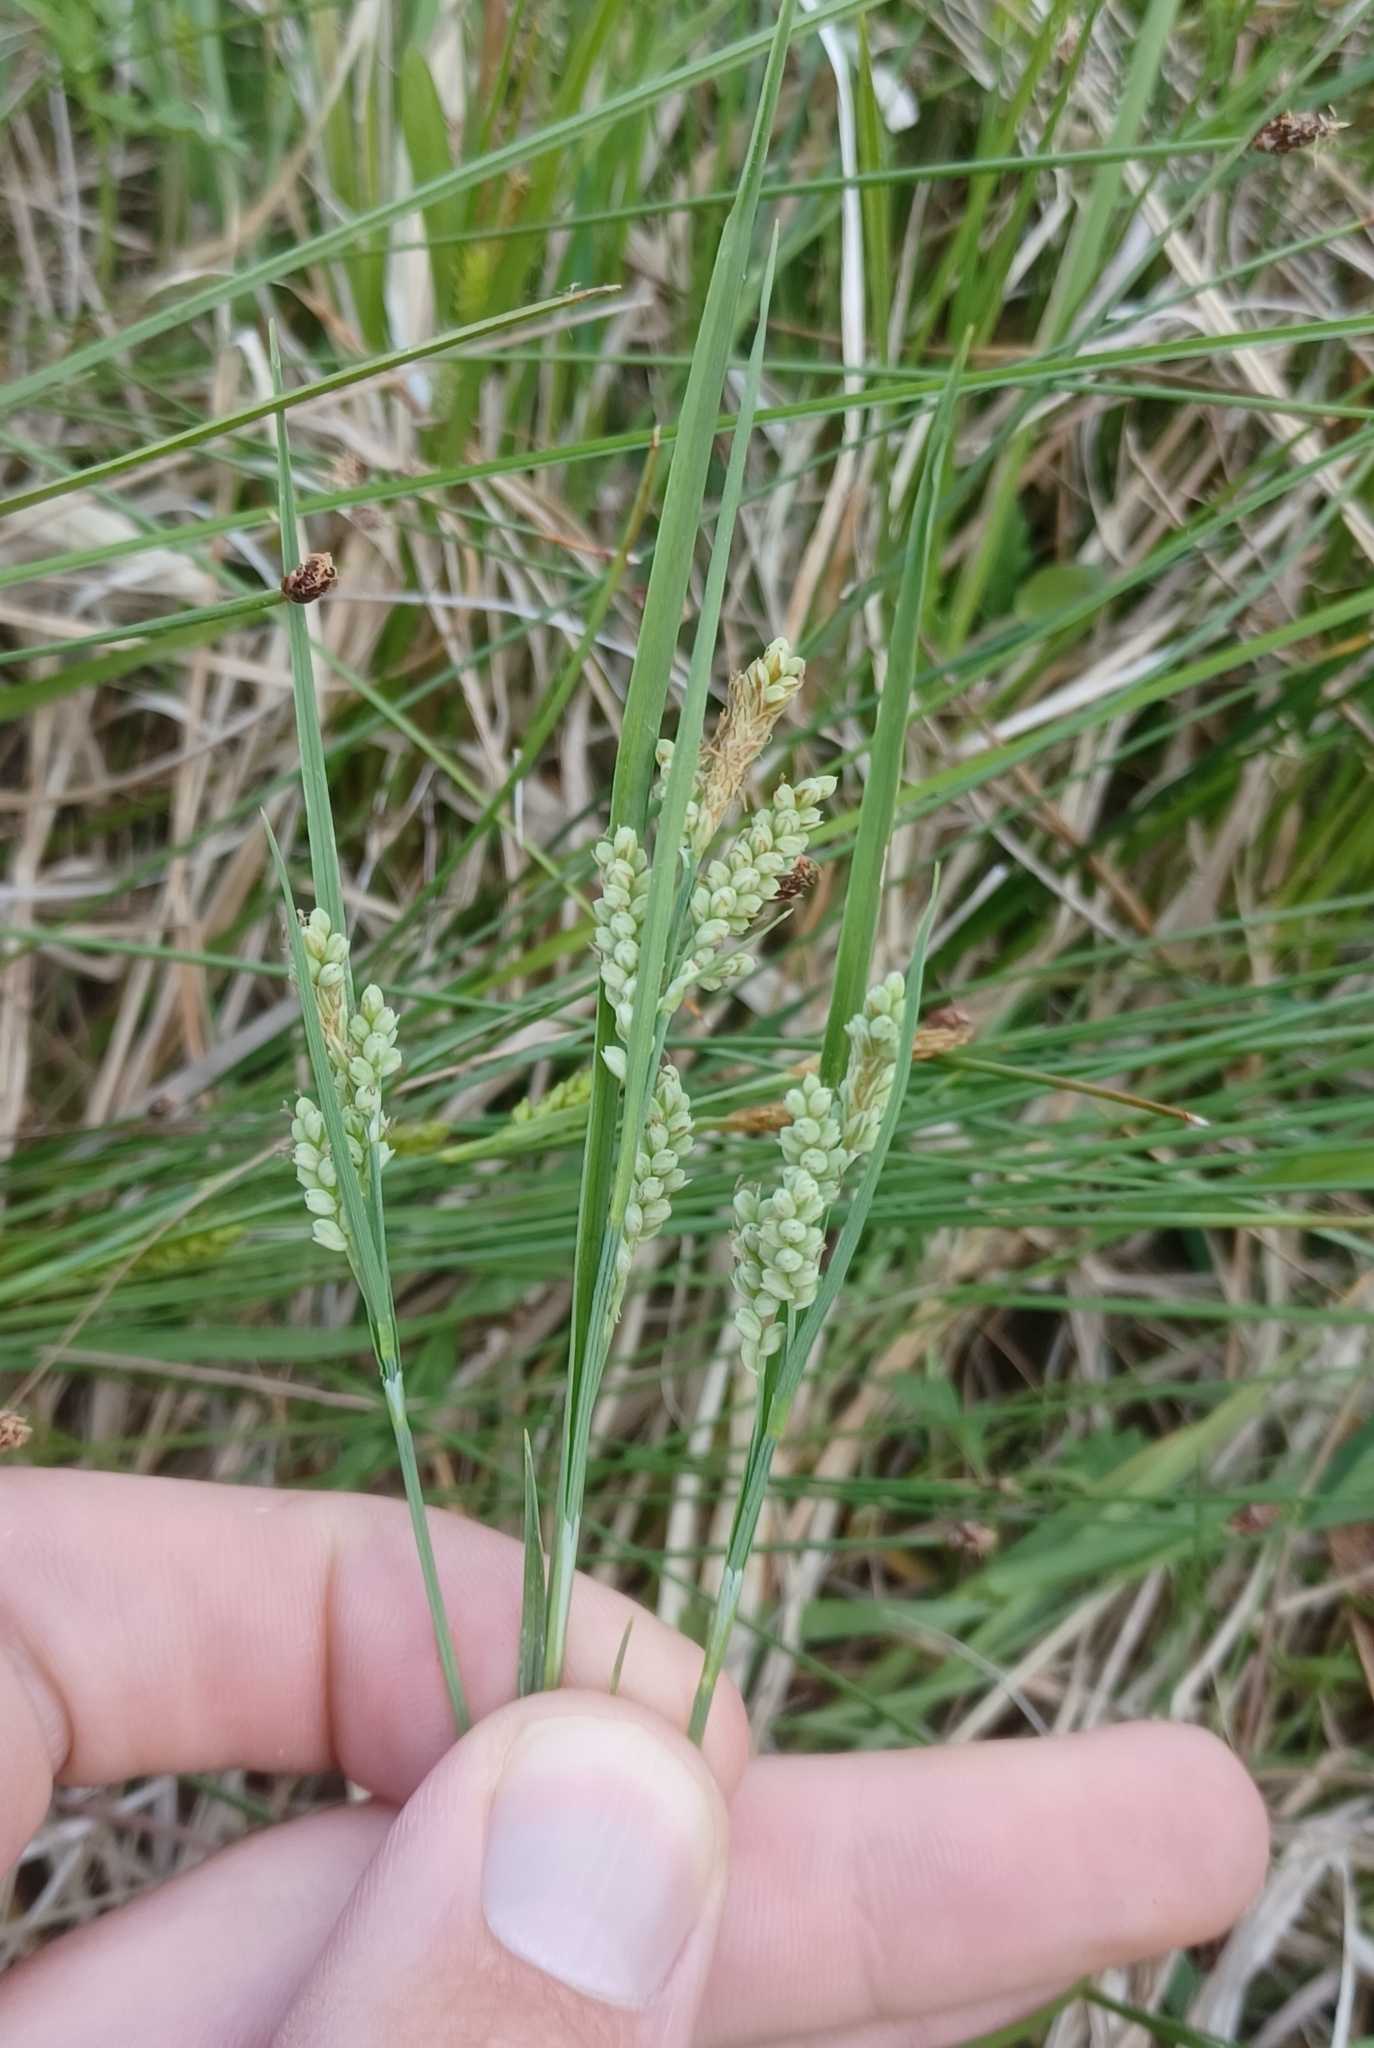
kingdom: Plantae
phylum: Tracheophyta
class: Liliopsida
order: Poales
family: Cyperaceae
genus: Carex
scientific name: Carex garberi
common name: Elk sedge
